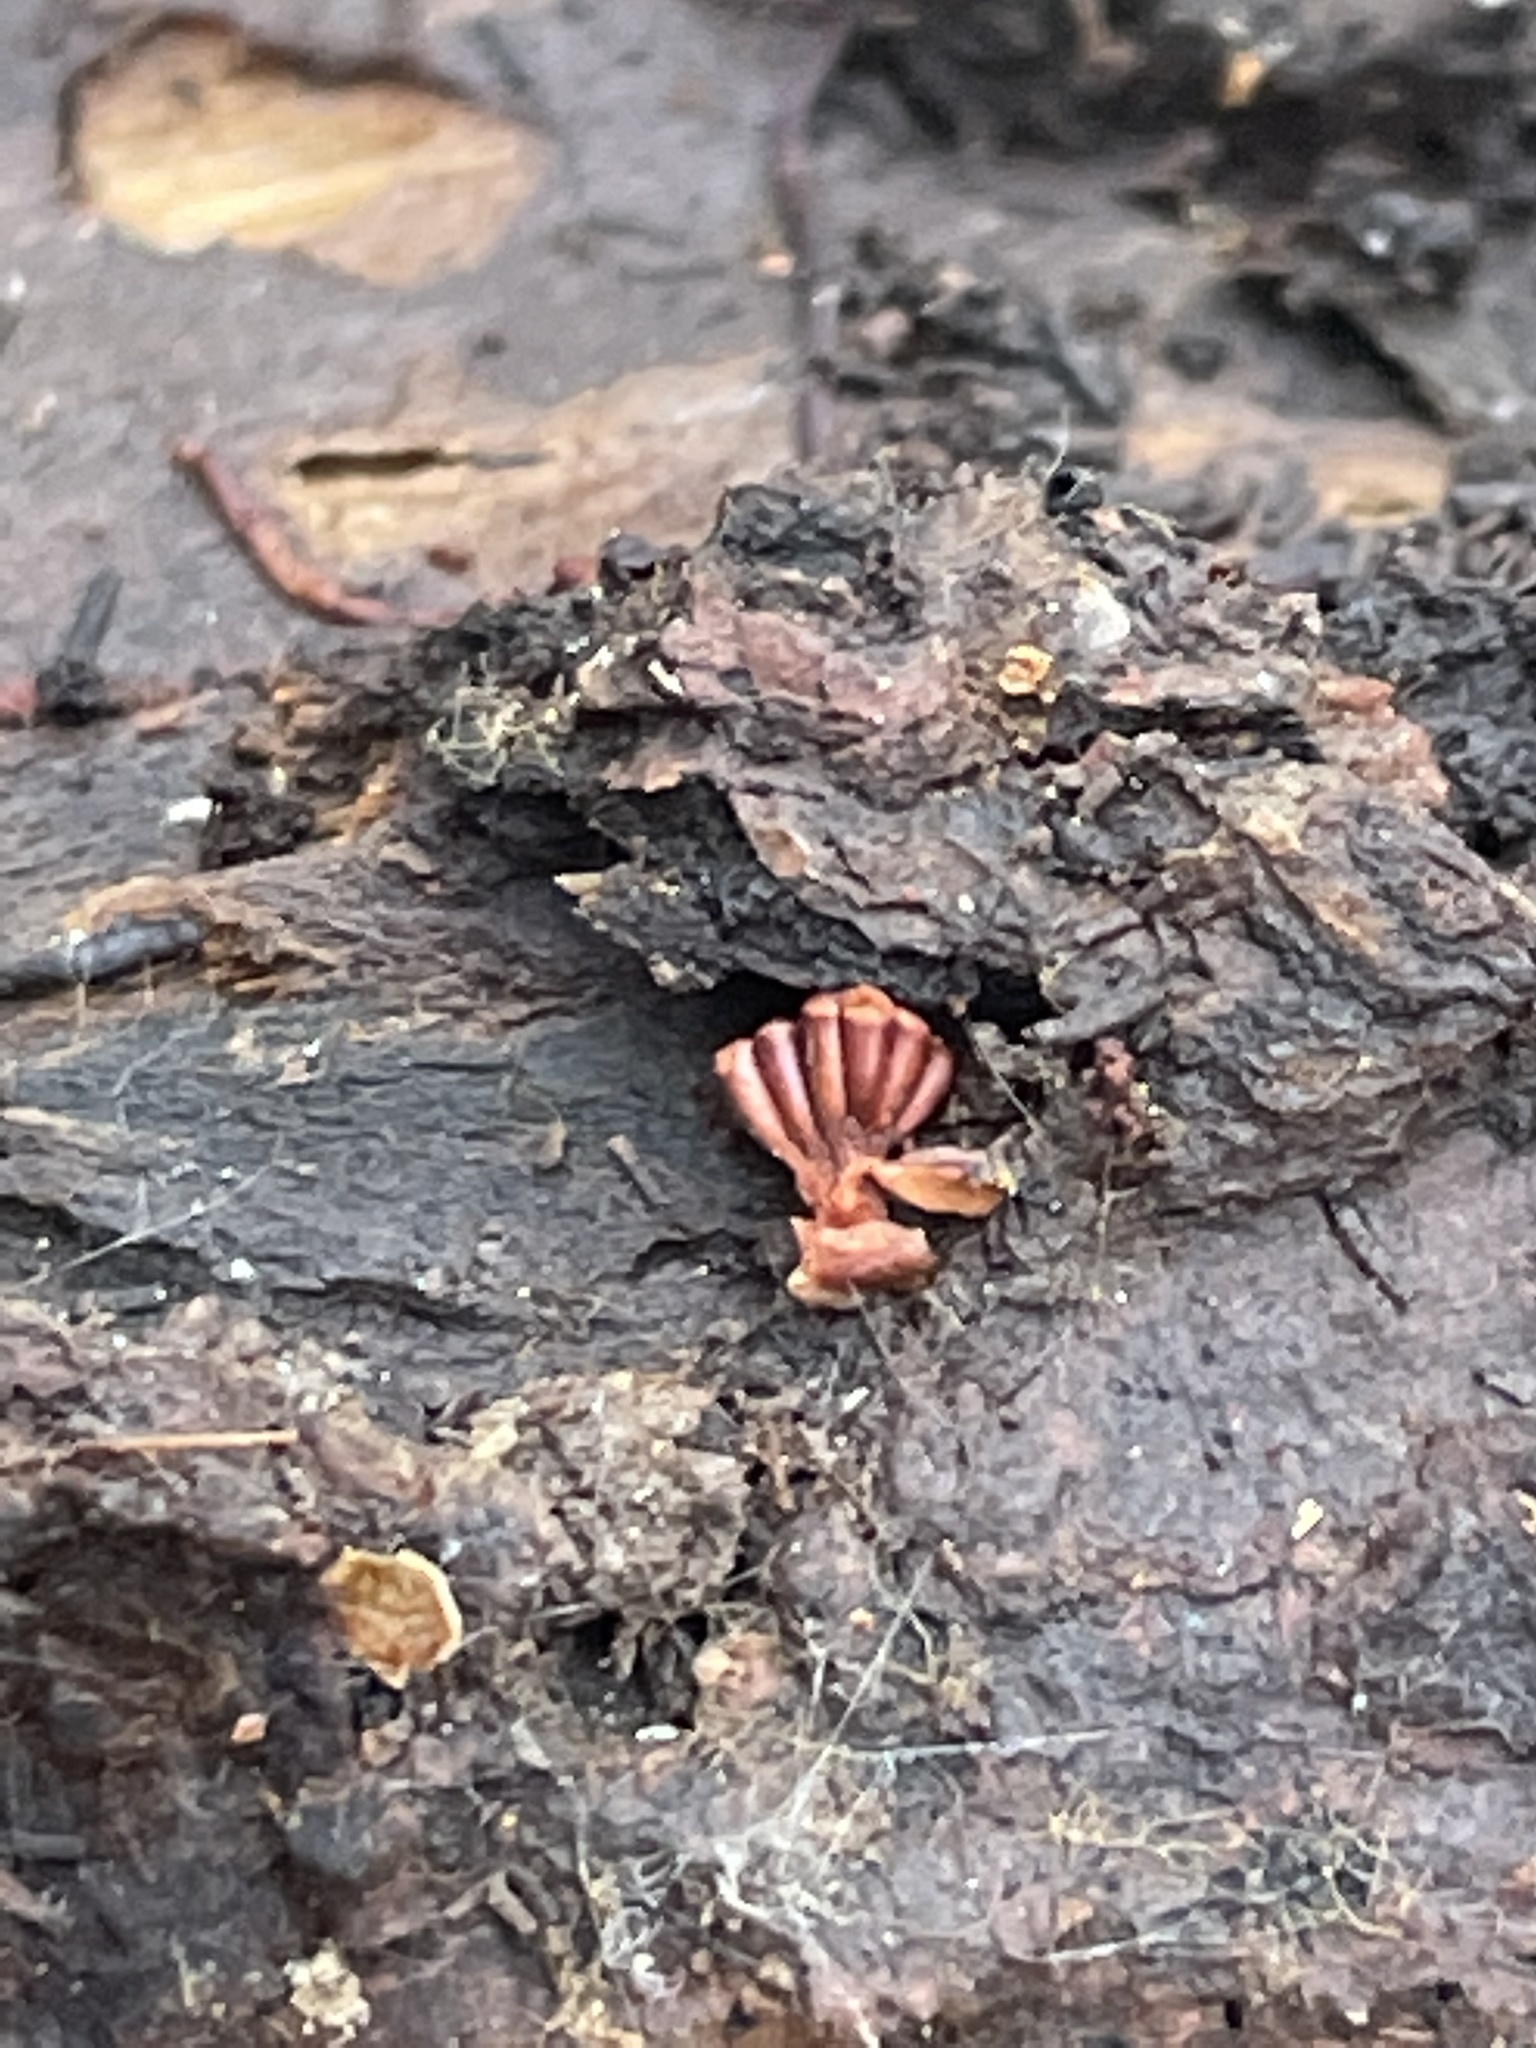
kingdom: Protozoa
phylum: Mycetozoa
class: Myxomycetes
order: Trichiales
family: Trichiaceae
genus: Metatrichia
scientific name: Metatrichia vesparia
